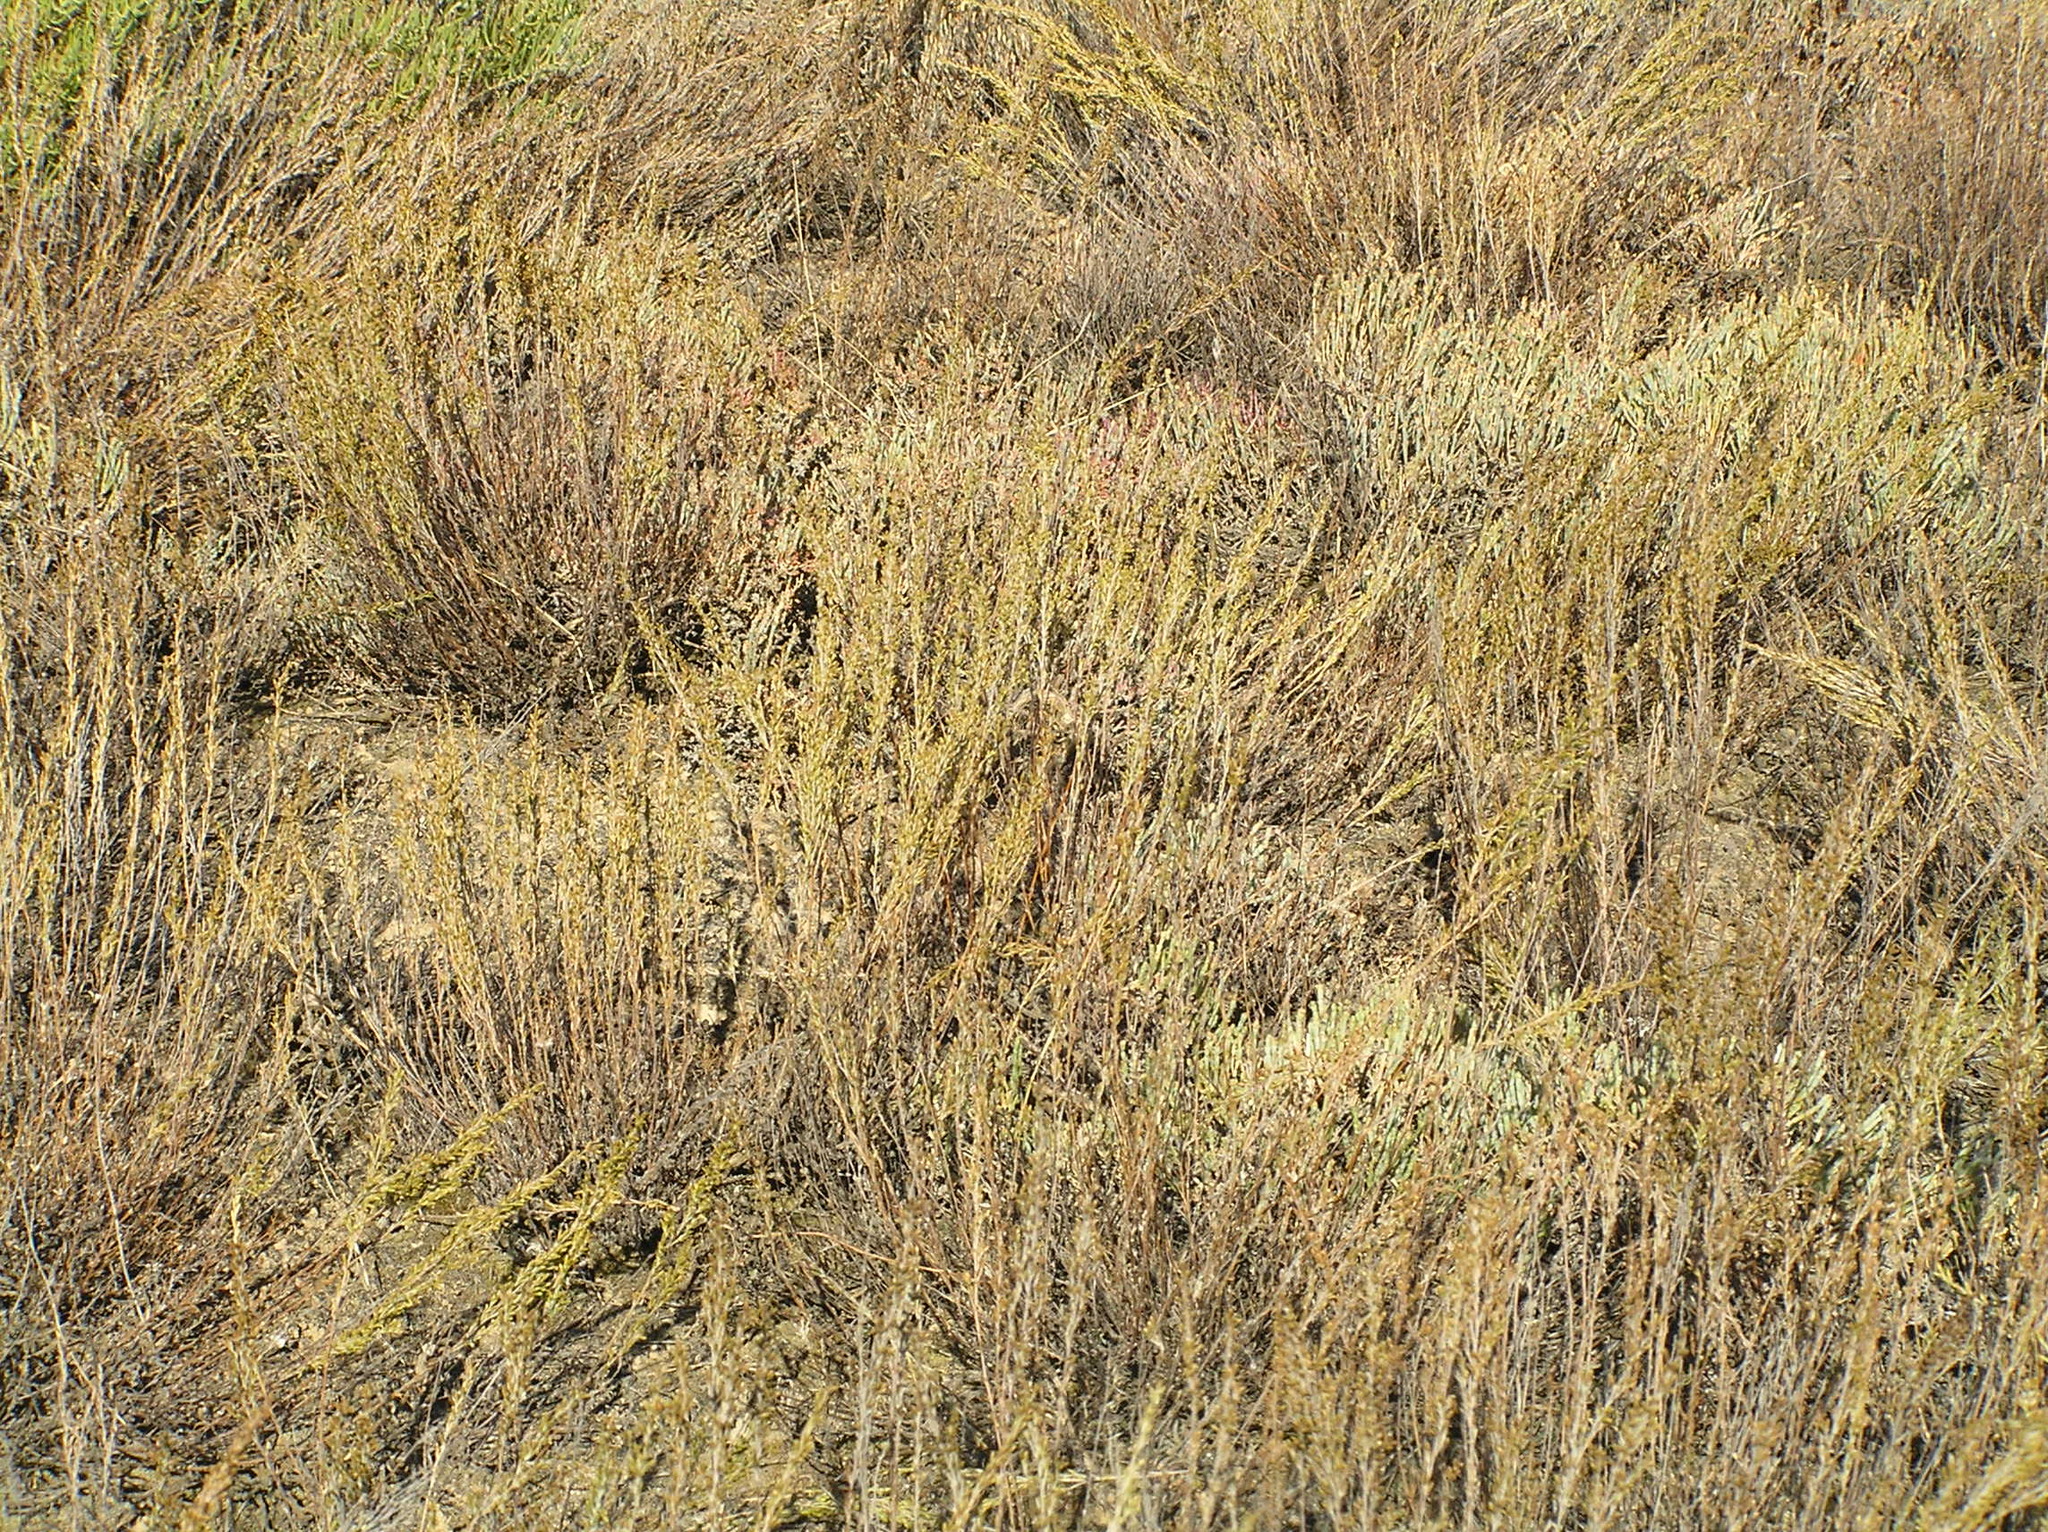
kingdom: Plantae
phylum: Tracheophyta
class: Magnoliopsida
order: Asterales
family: Asteraceae
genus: Artemisia
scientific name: Artemisia pauciflora
